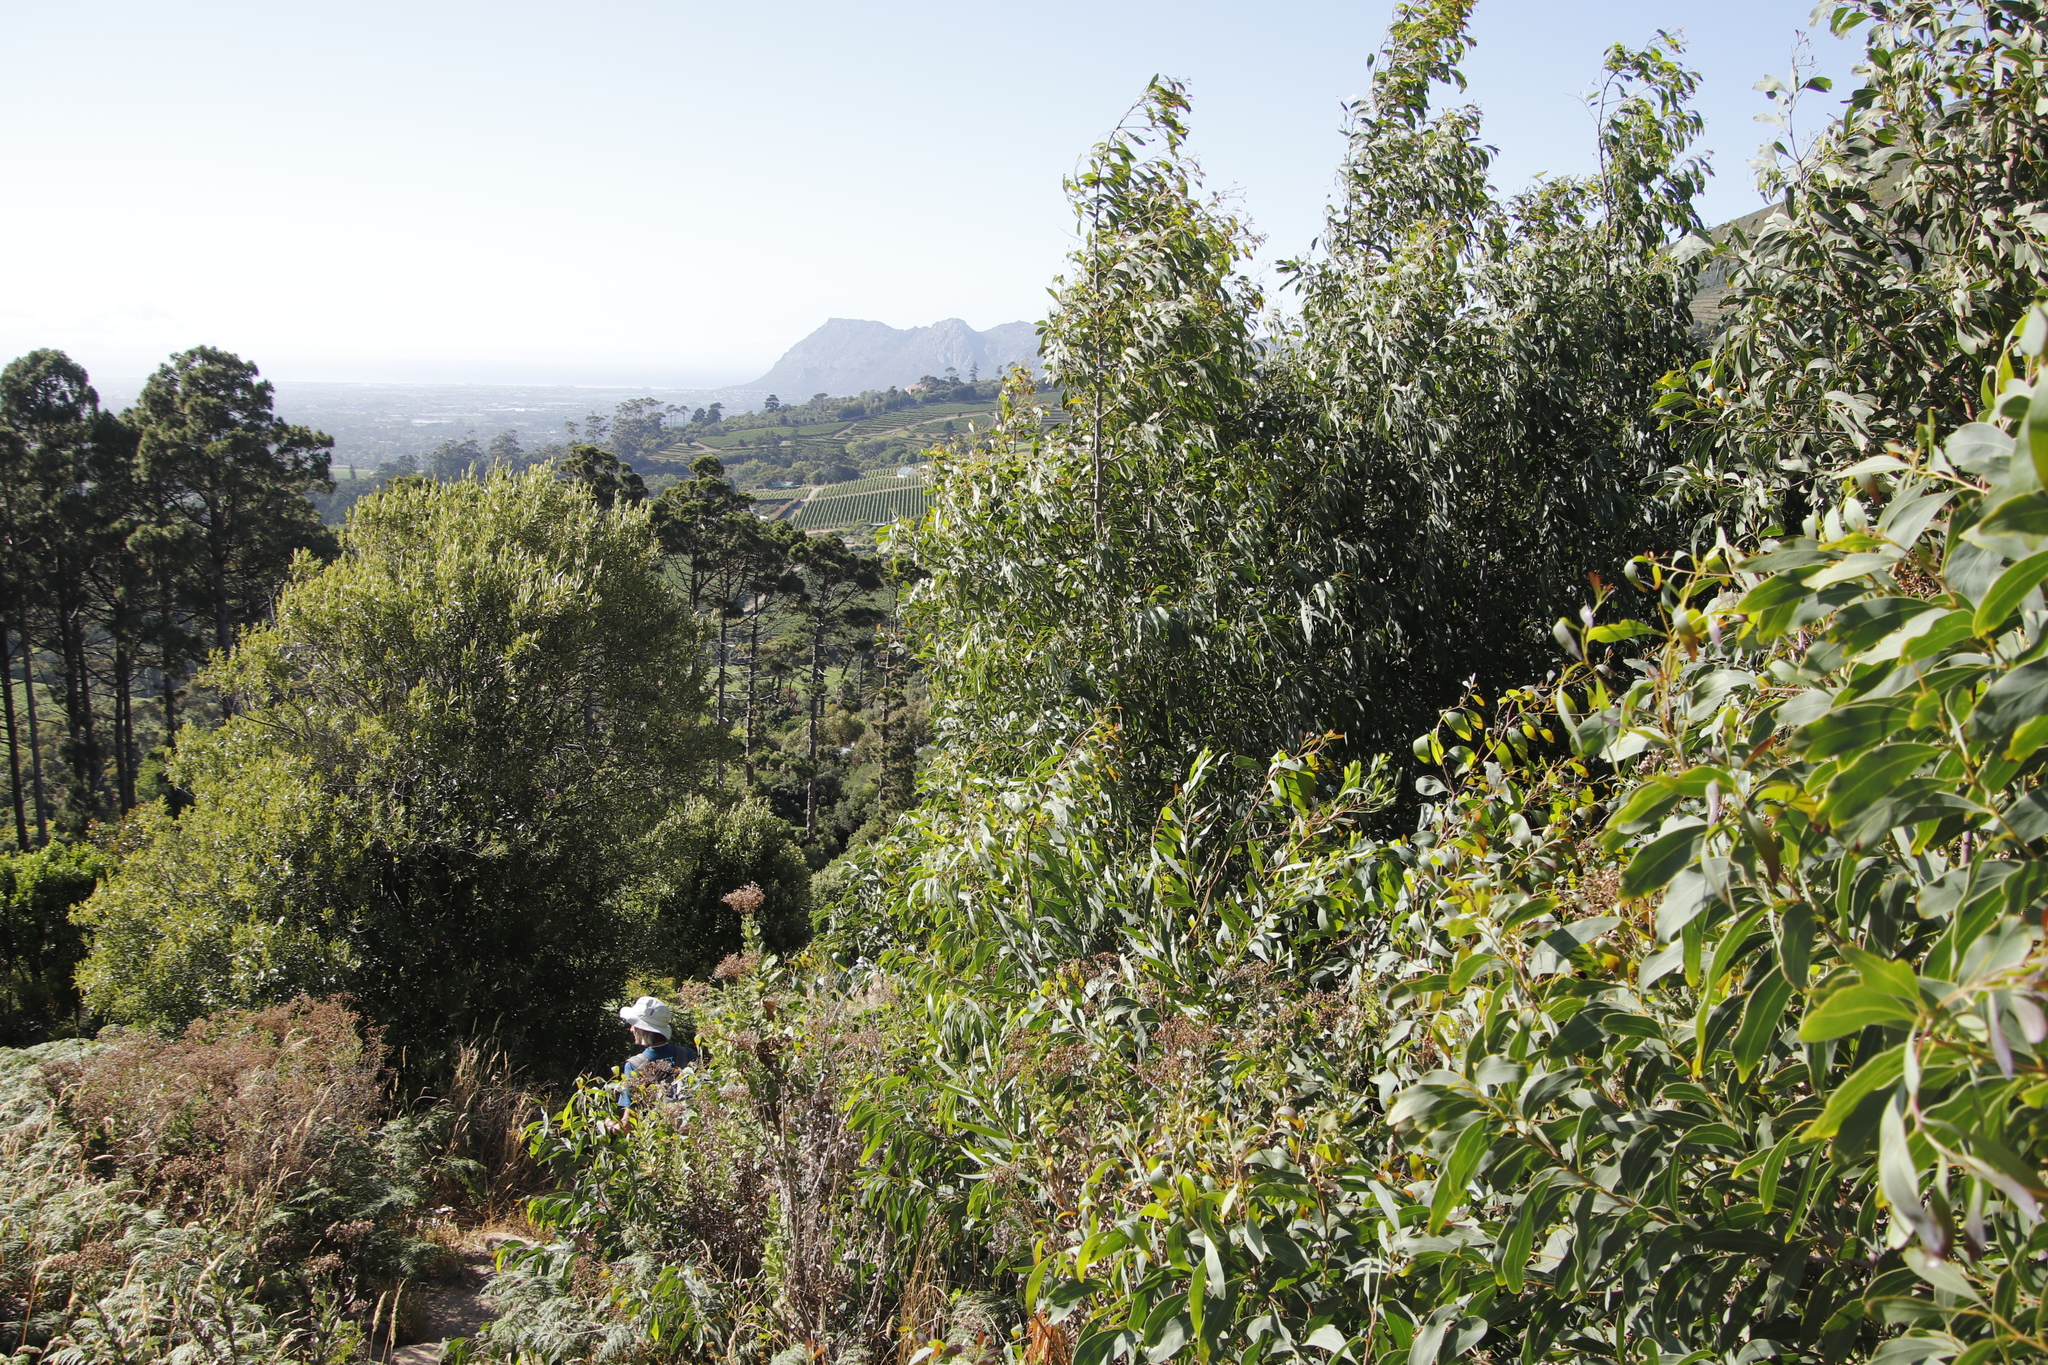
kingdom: Plantae
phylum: Tracheophyta
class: Magnoliopsida
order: Fabales
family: Fabaceae
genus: Acacia
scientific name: Acacia falciformis
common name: Tanning wattle
